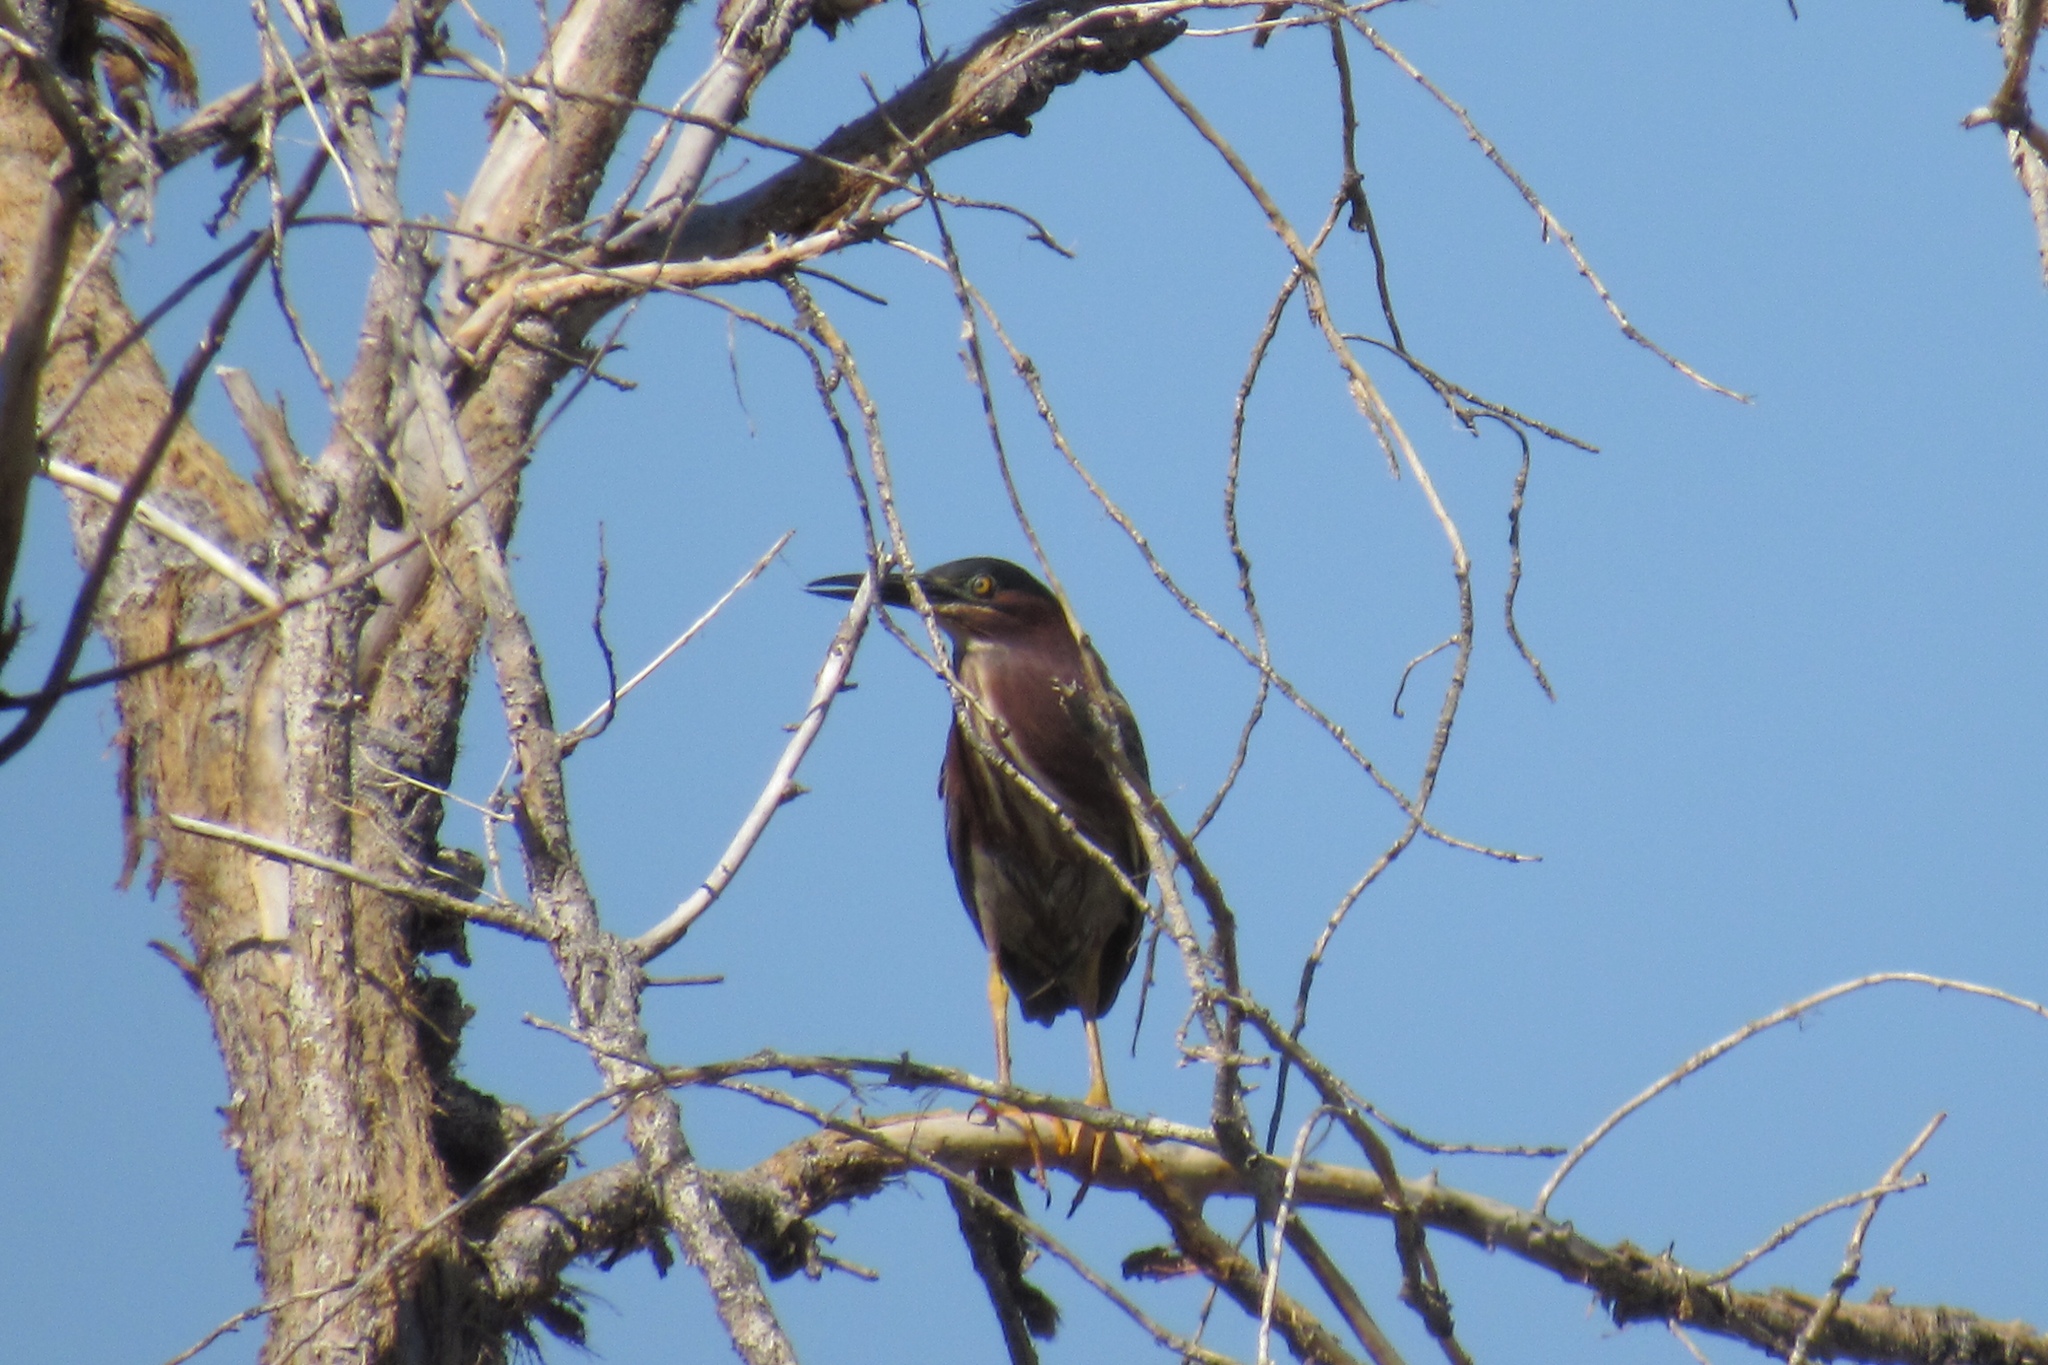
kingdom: Animalia
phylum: Chordata
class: Aves
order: Pelecaniformes
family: Ardeidae
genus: Butorides
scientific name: Butorides virescens
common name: Green heron
